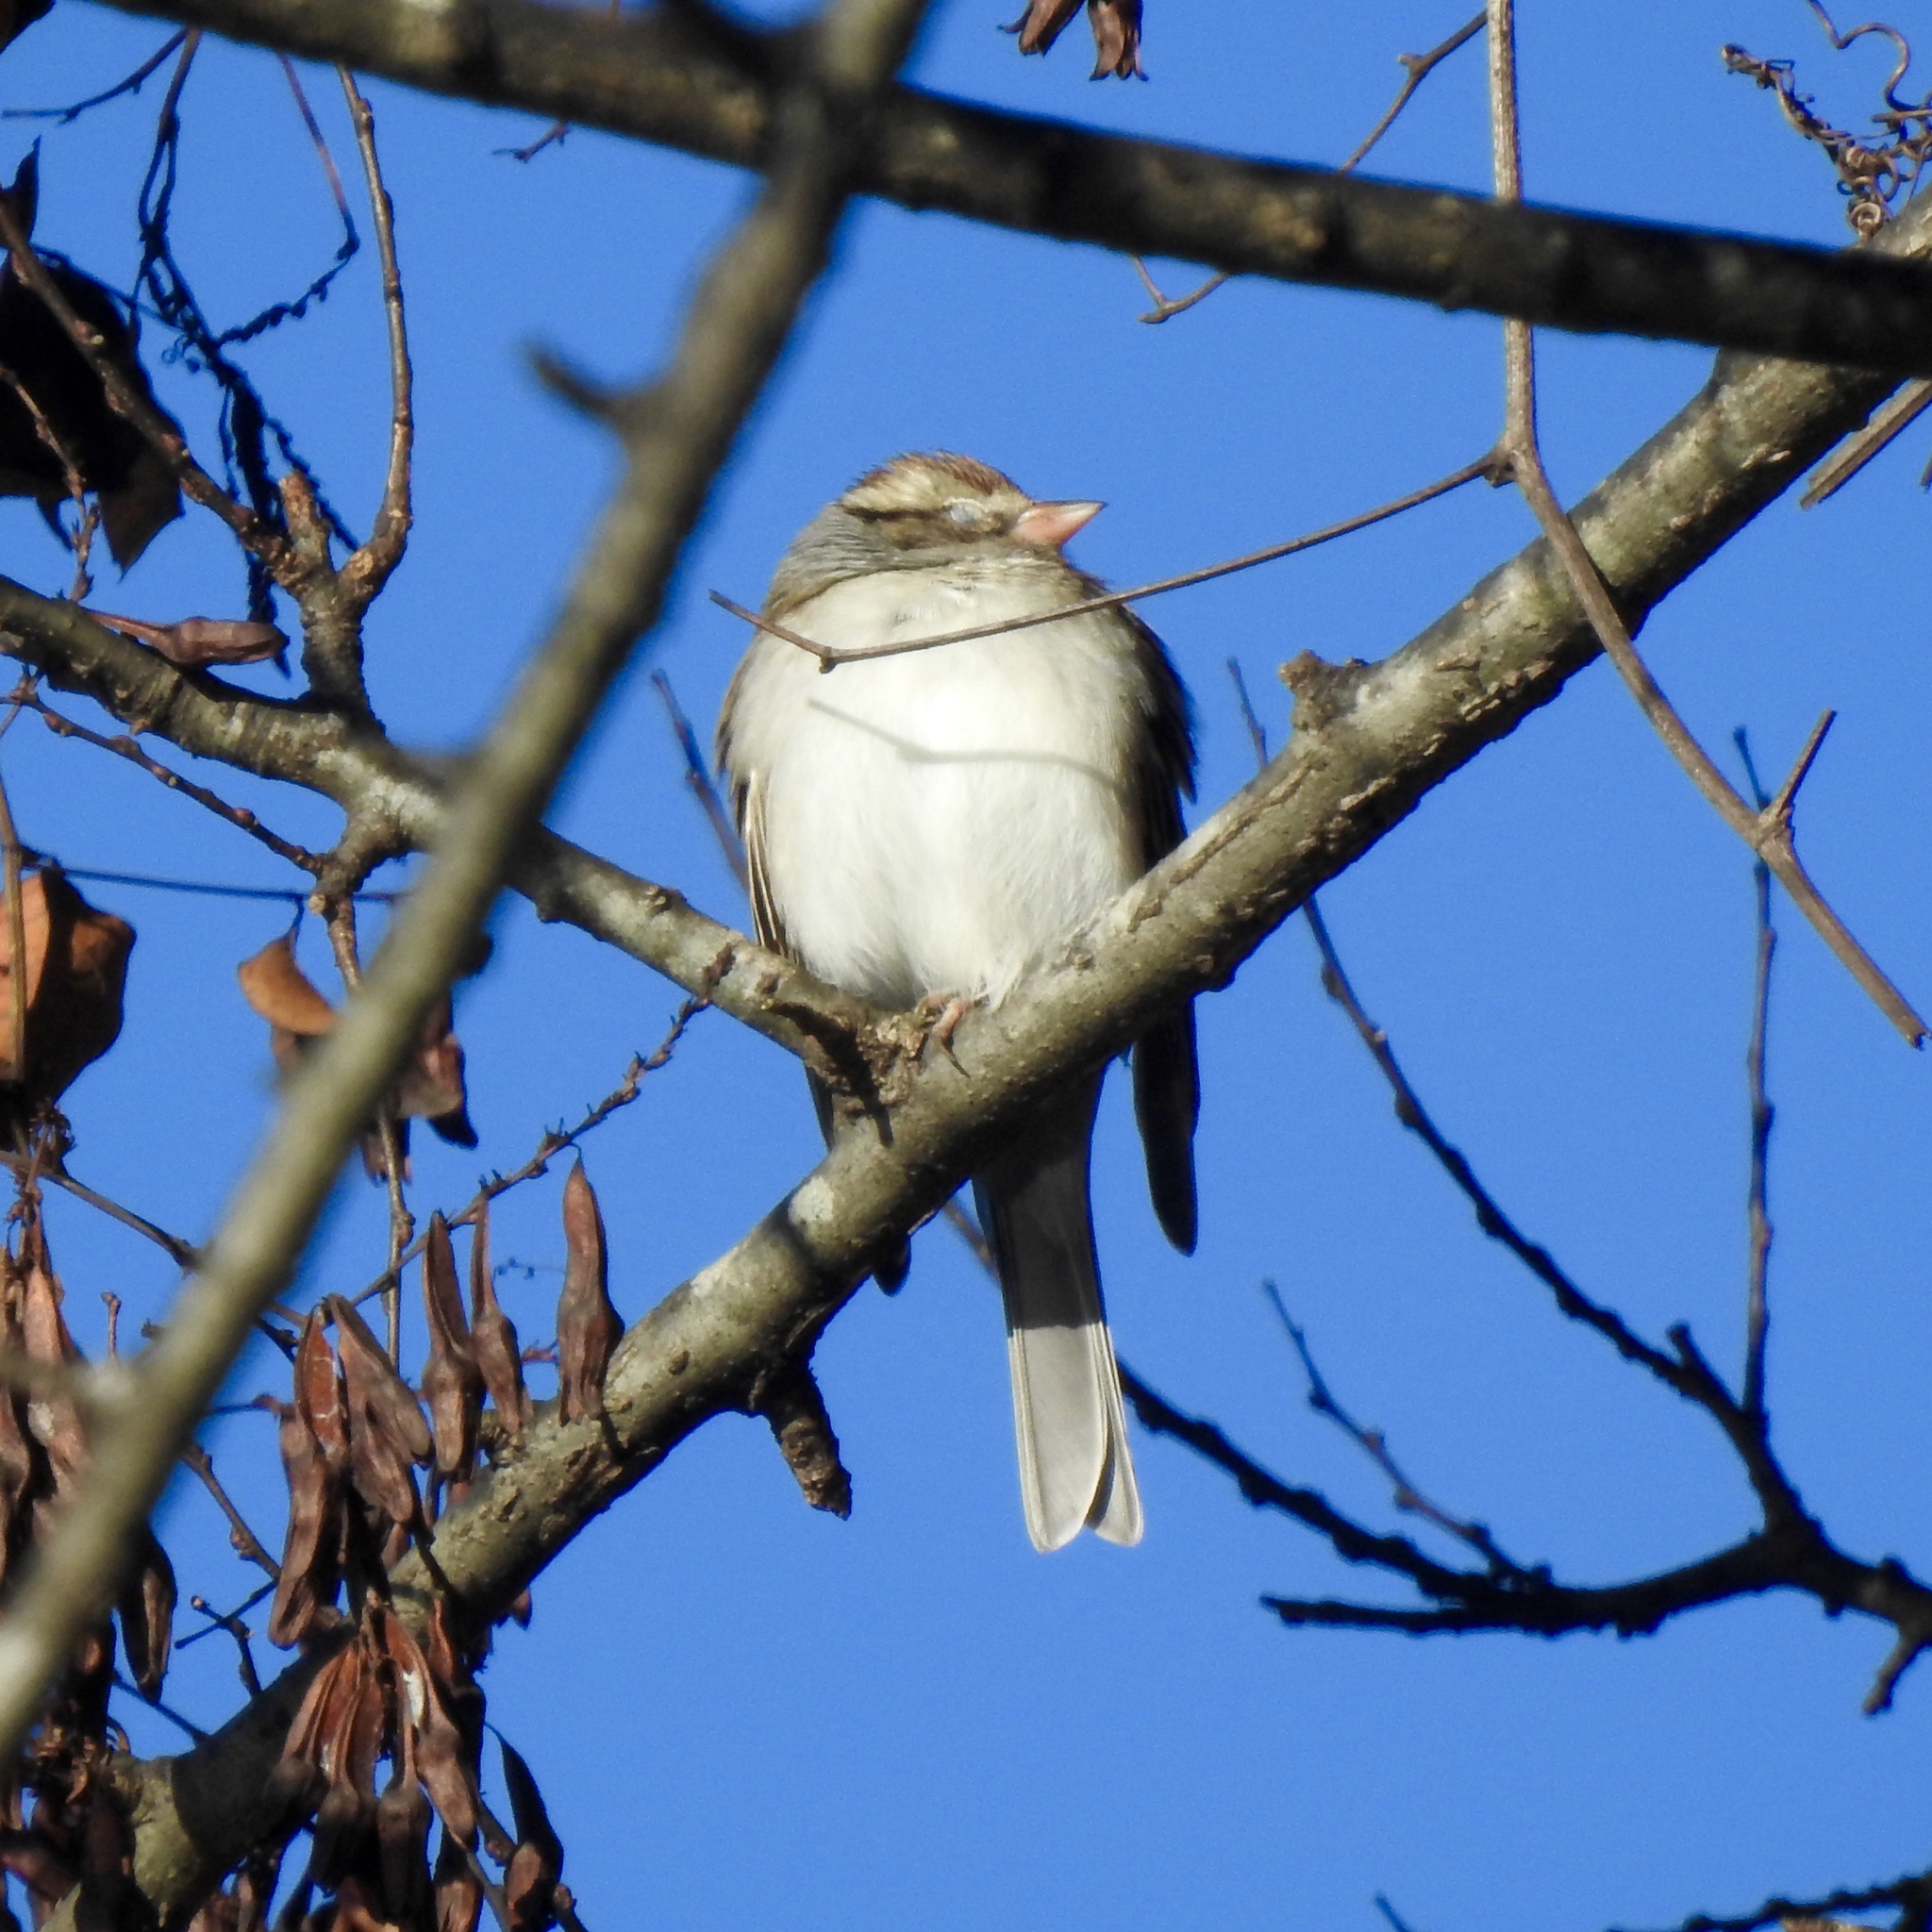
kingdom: Animalia
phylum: Chordata
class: Aves
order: Passeriformes
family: Passerellidae
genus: Spizella
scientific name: Spizella passerina
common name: Chipping sparrow
